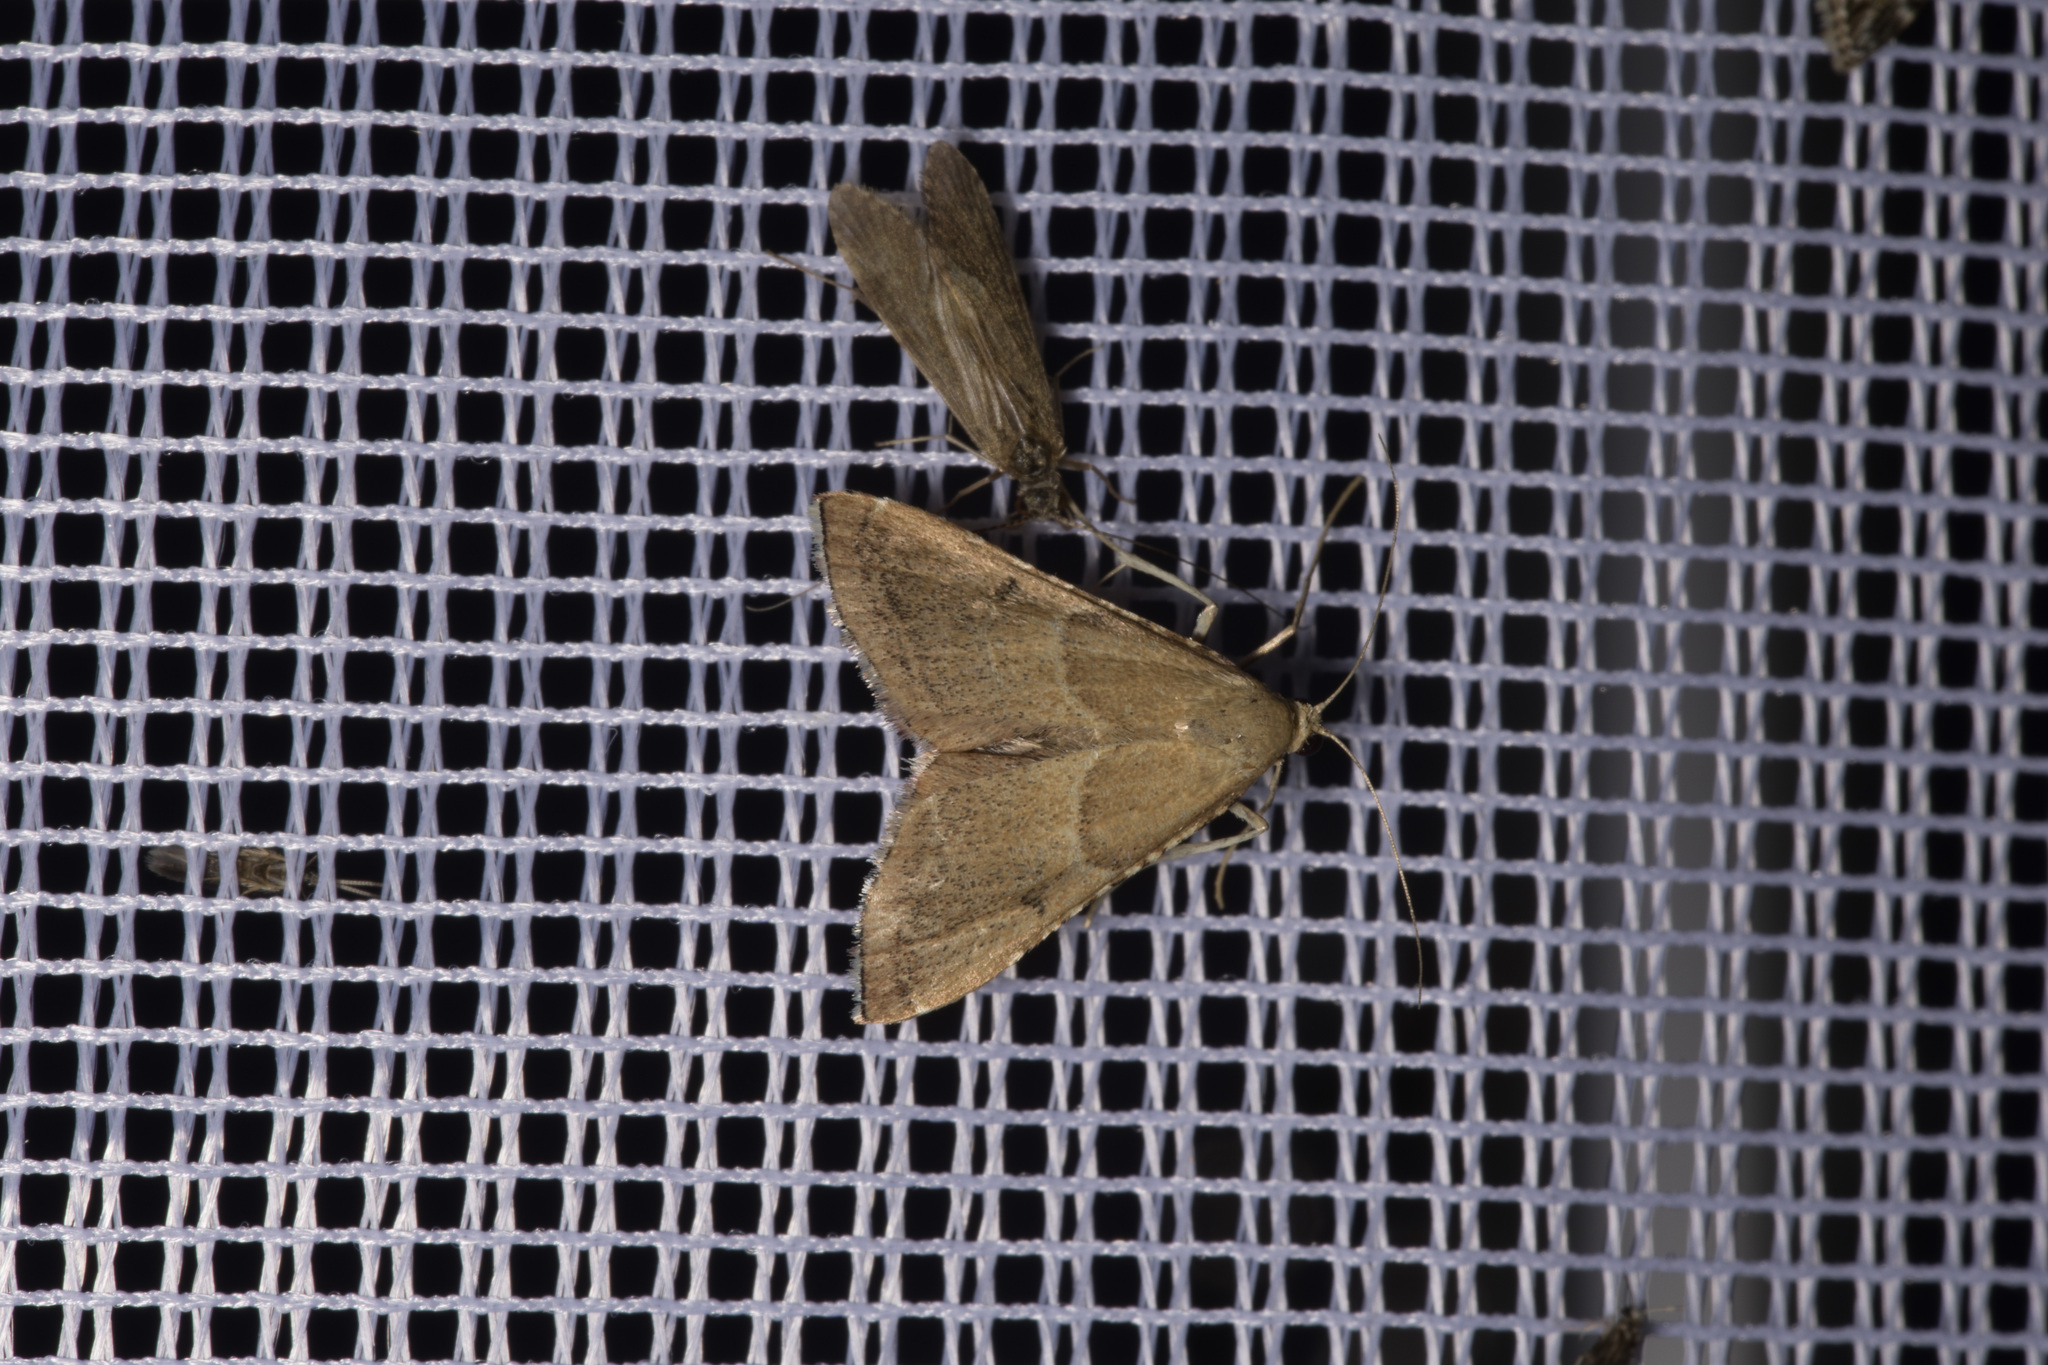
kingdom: Animalia
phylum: Arthropoda
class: Insecta
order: Lepidoptera
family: Pyralidae
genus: Endotricha
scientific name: Endotricha flammealis
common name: Rosy tabby
